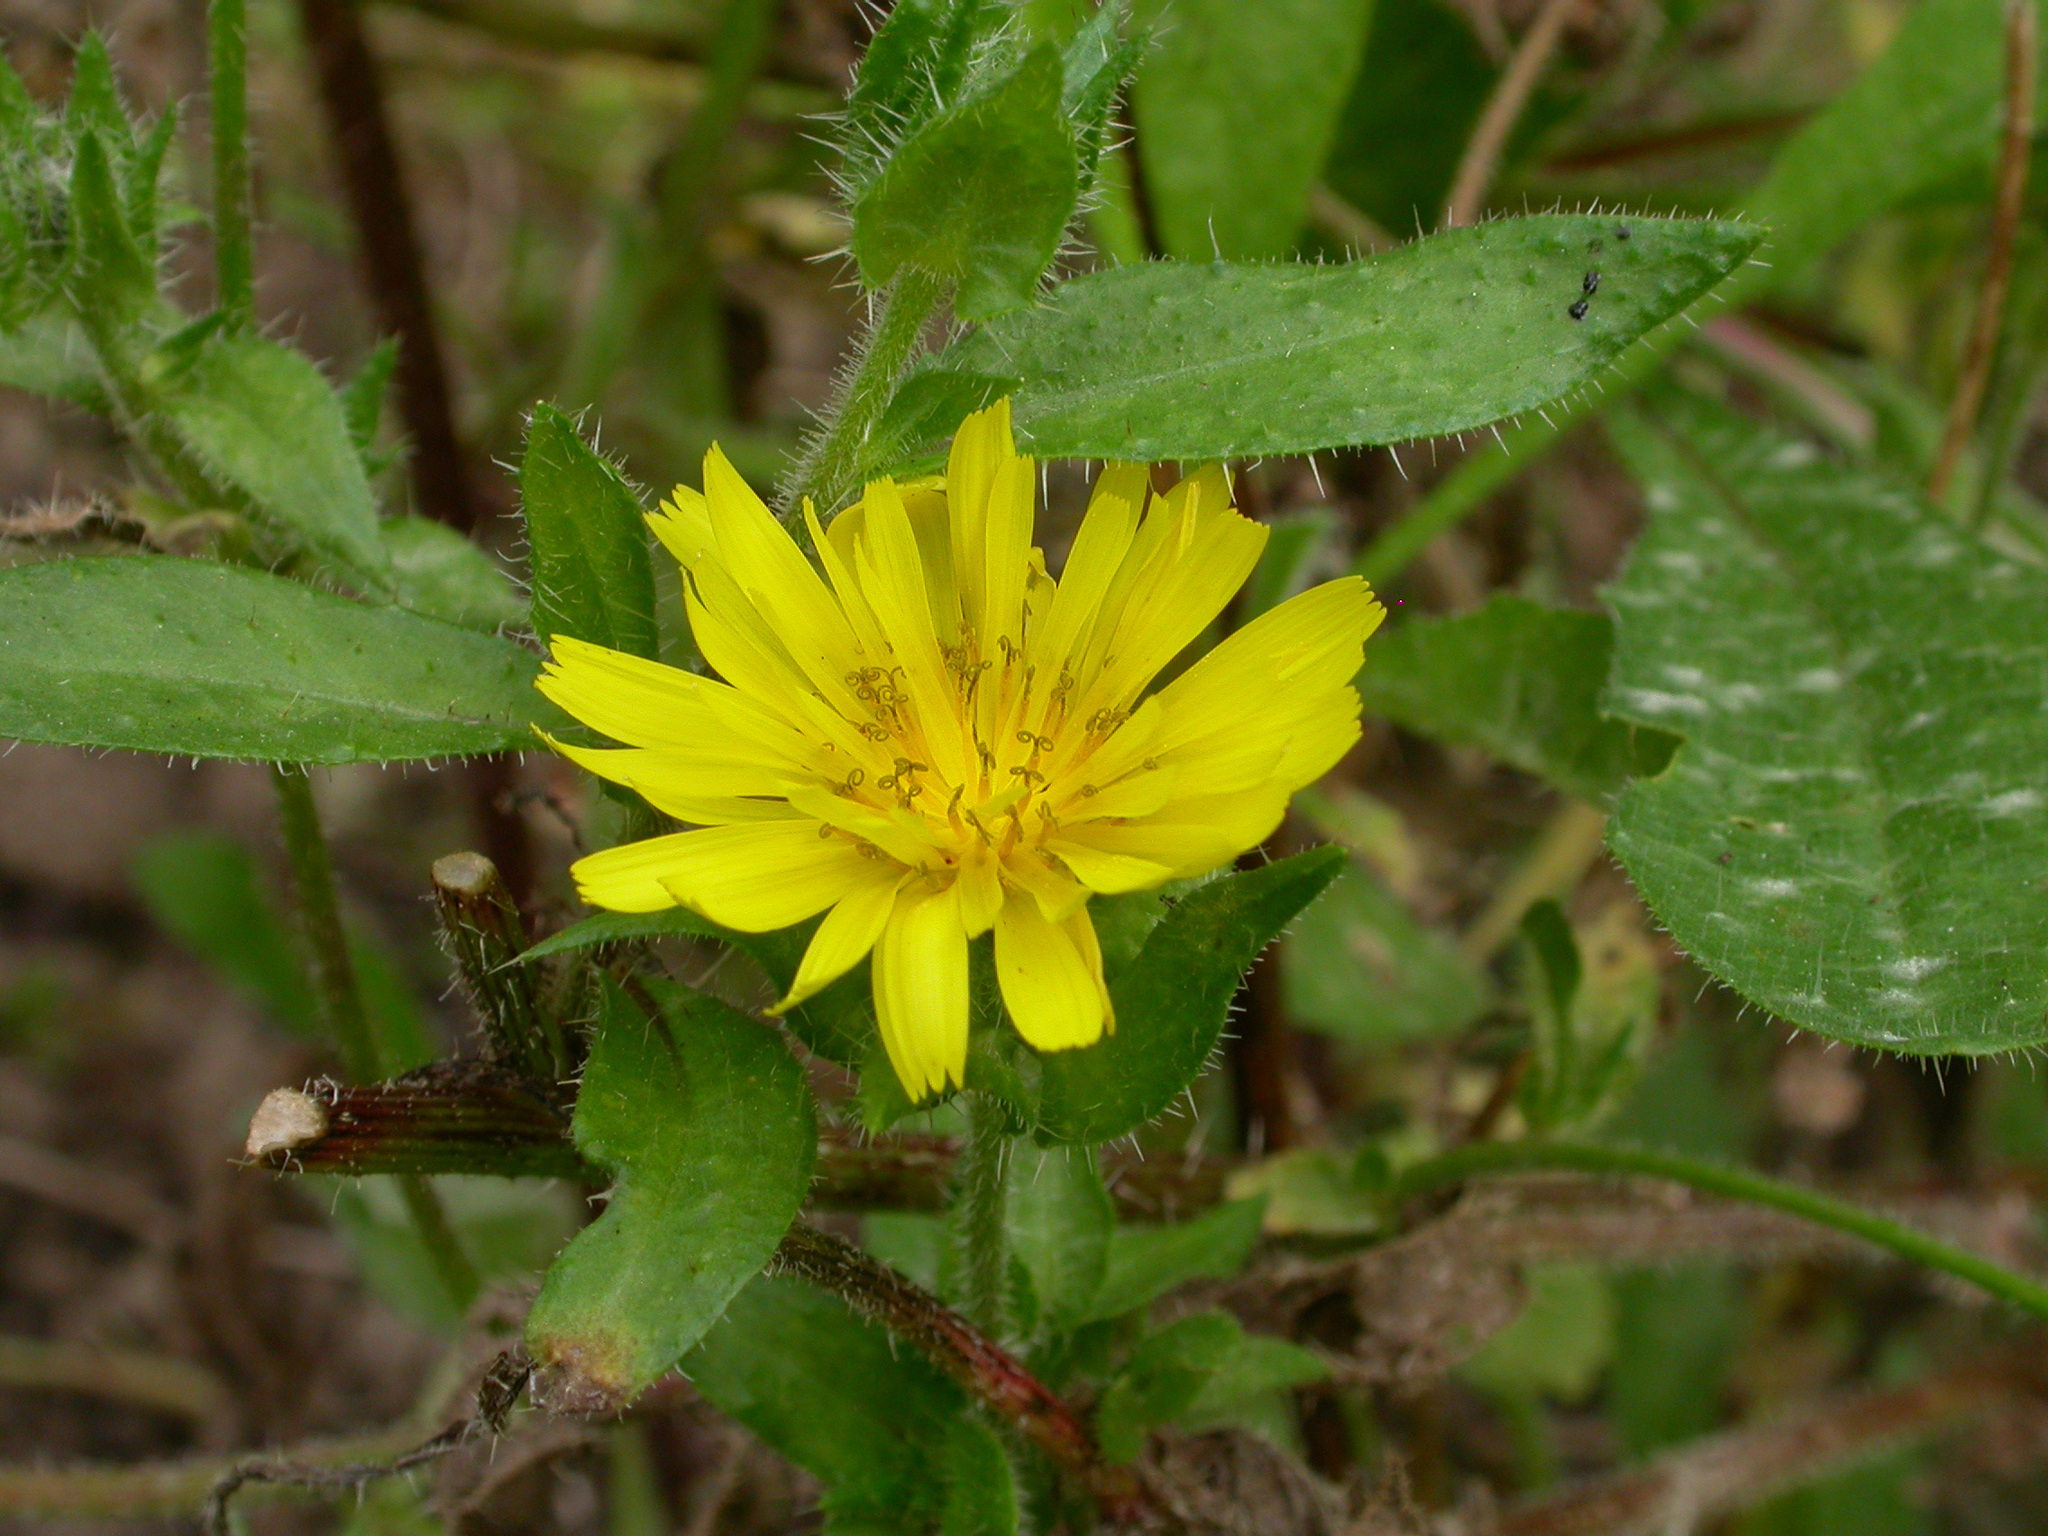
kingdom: Plantae
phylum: Tracheophyta
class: Magnoliopsida
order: Asterales
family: Asteraceae
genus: Helminthotheca
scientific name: Helminthotheca echioides
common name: Ox-tongue
